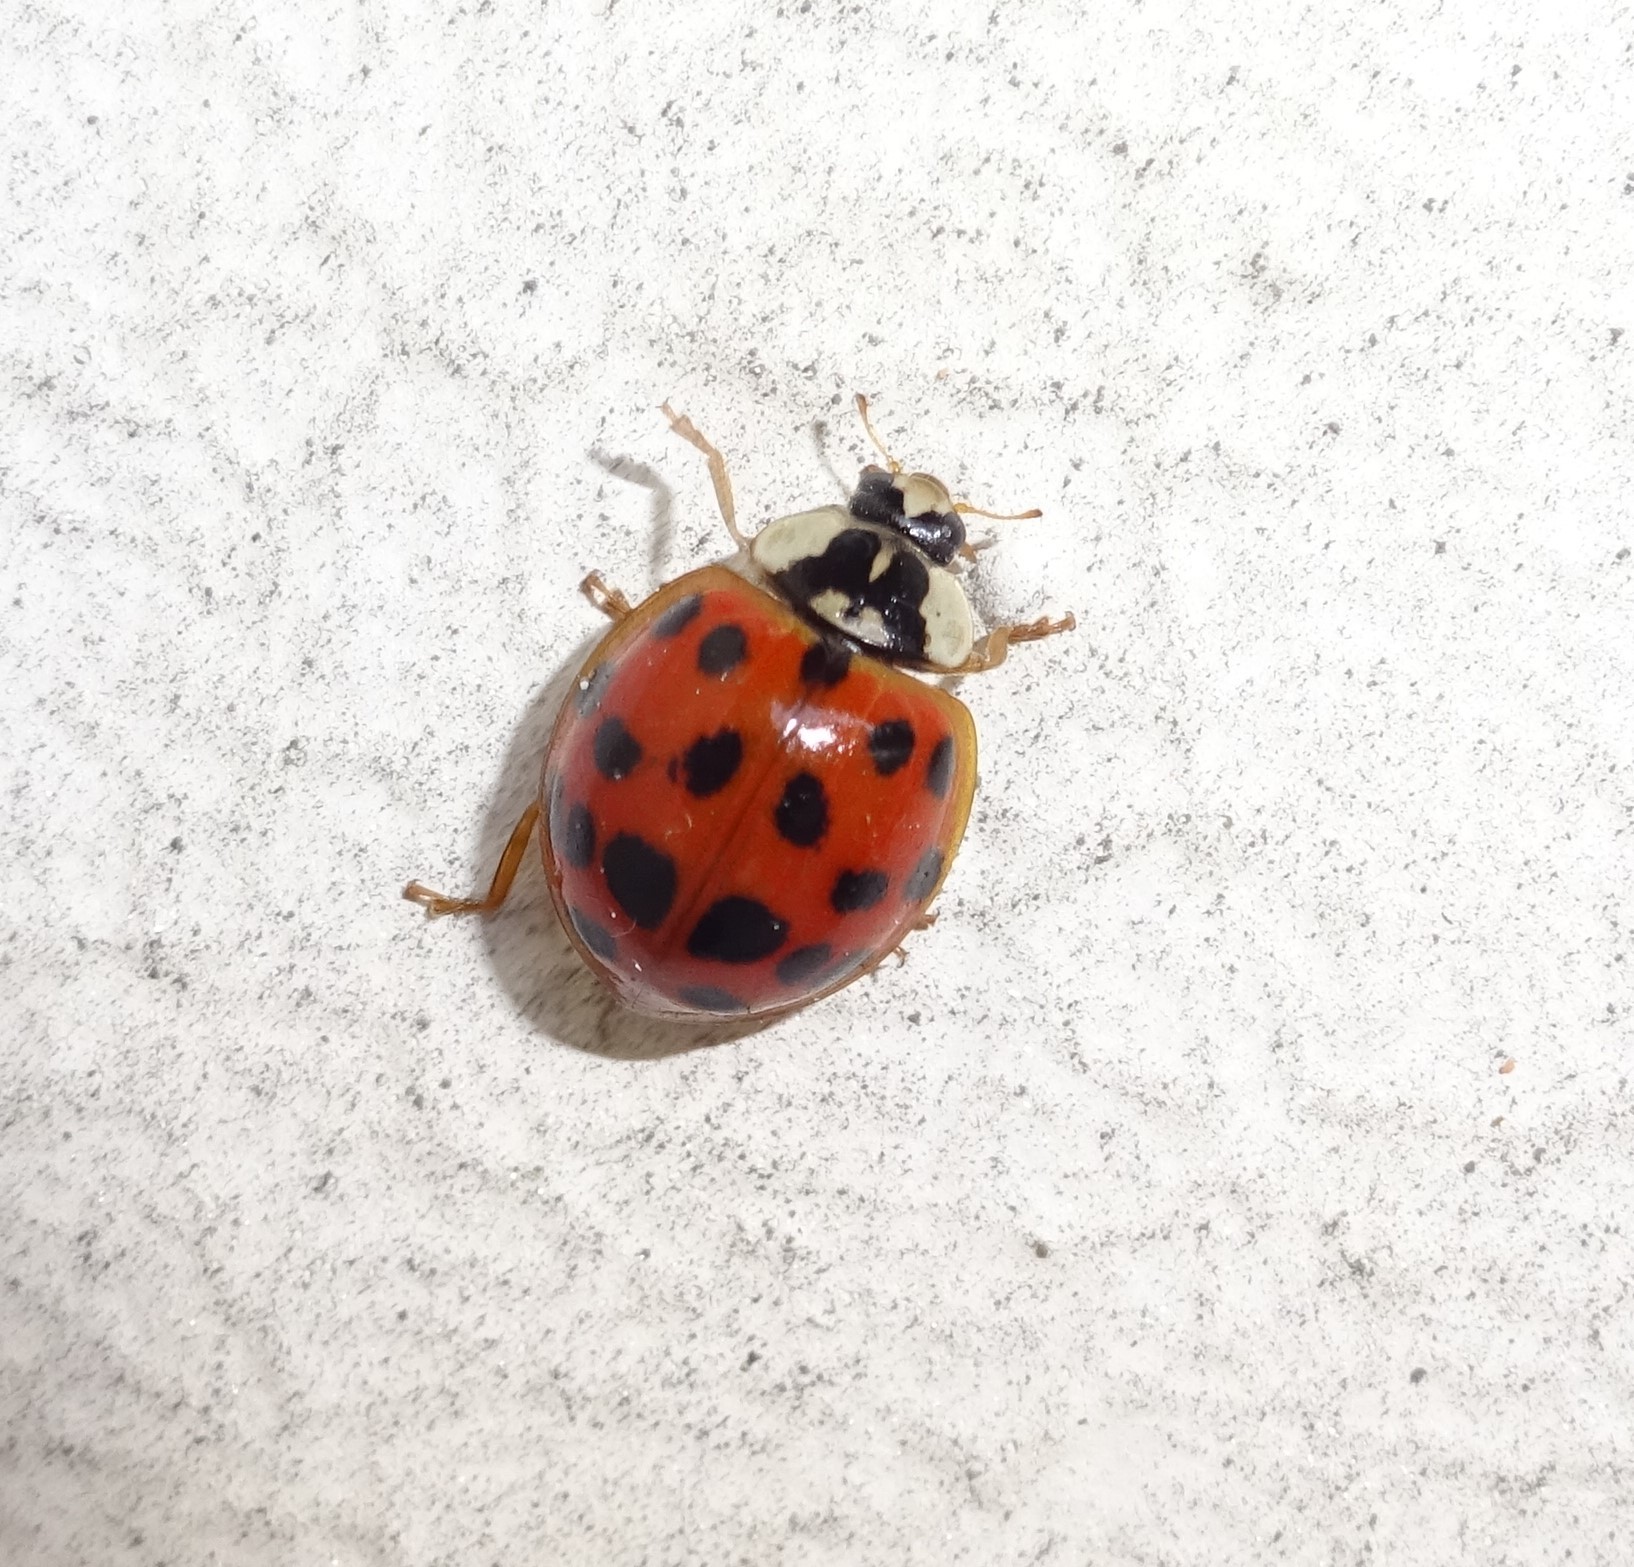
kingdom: Animalia
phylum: Arthropoda
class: Insecta
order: Coleoptera
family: Coccinellidae
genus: Harmonia
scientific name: Harmonia axyridis
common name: Harlequin ladybird
